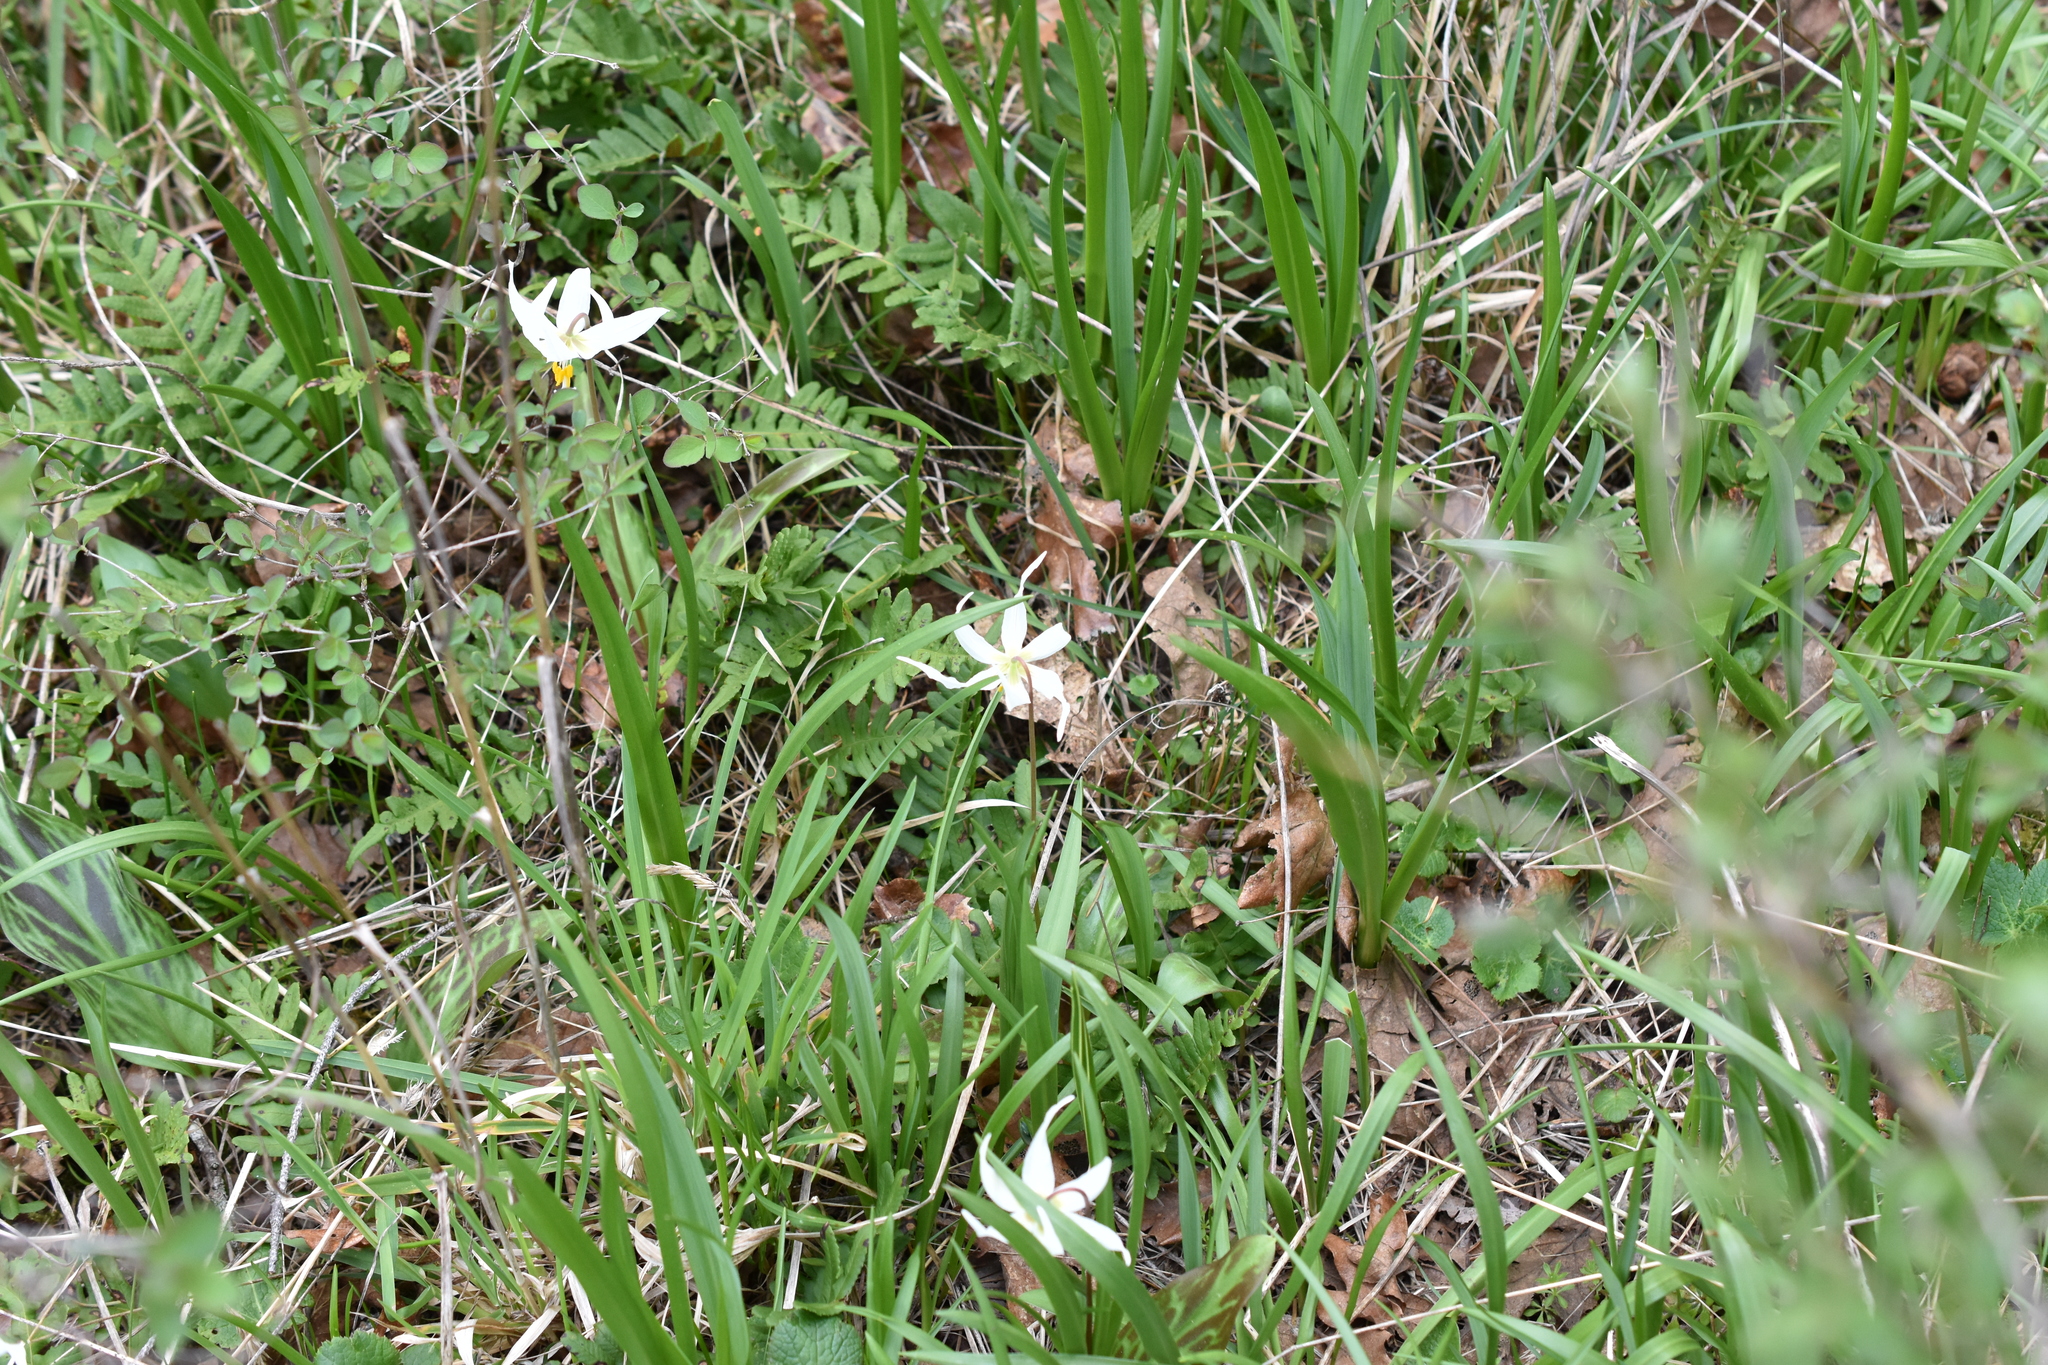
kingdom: Plantae
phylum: Tracheophyta
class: Liliopsida
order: Liliales
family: Liliaceae
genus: Erythronium
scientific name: Erythronium oregonum
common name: Giant adder's-tongue
